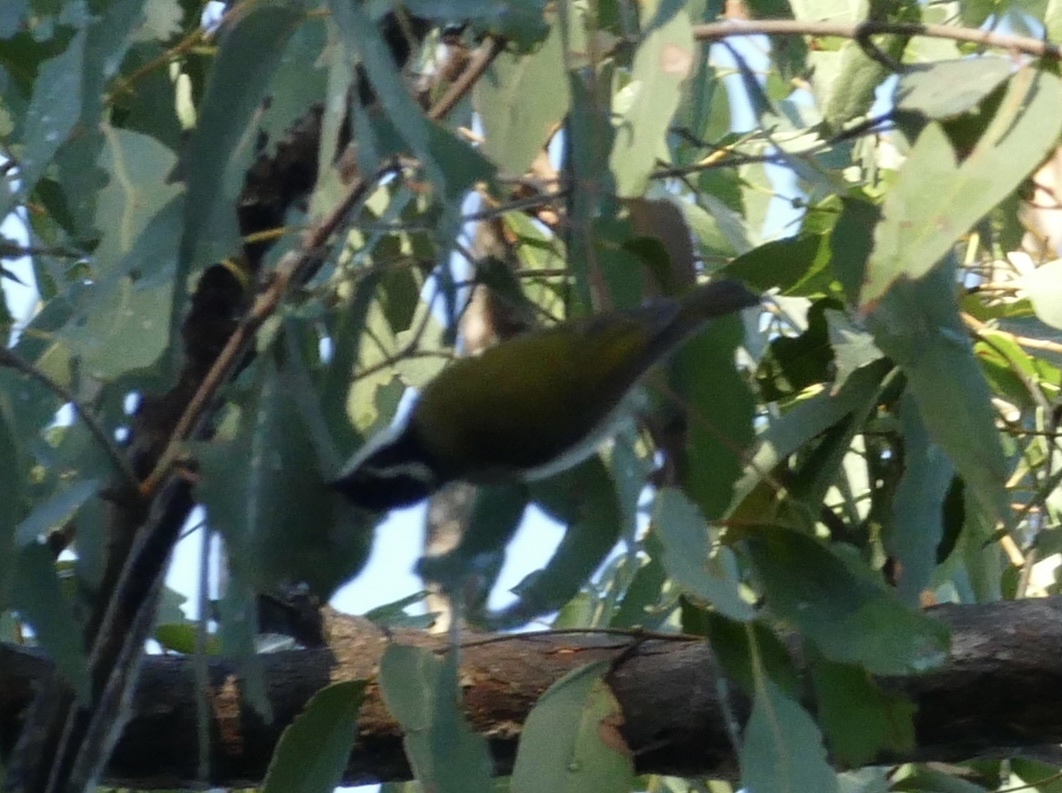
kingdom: Animalia
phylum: Chordata
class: Aves
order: Passeriformes
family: Meliphagidae
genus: Melithreptus
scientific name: Melithreptus albogularis
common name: White-throated honeyeater
